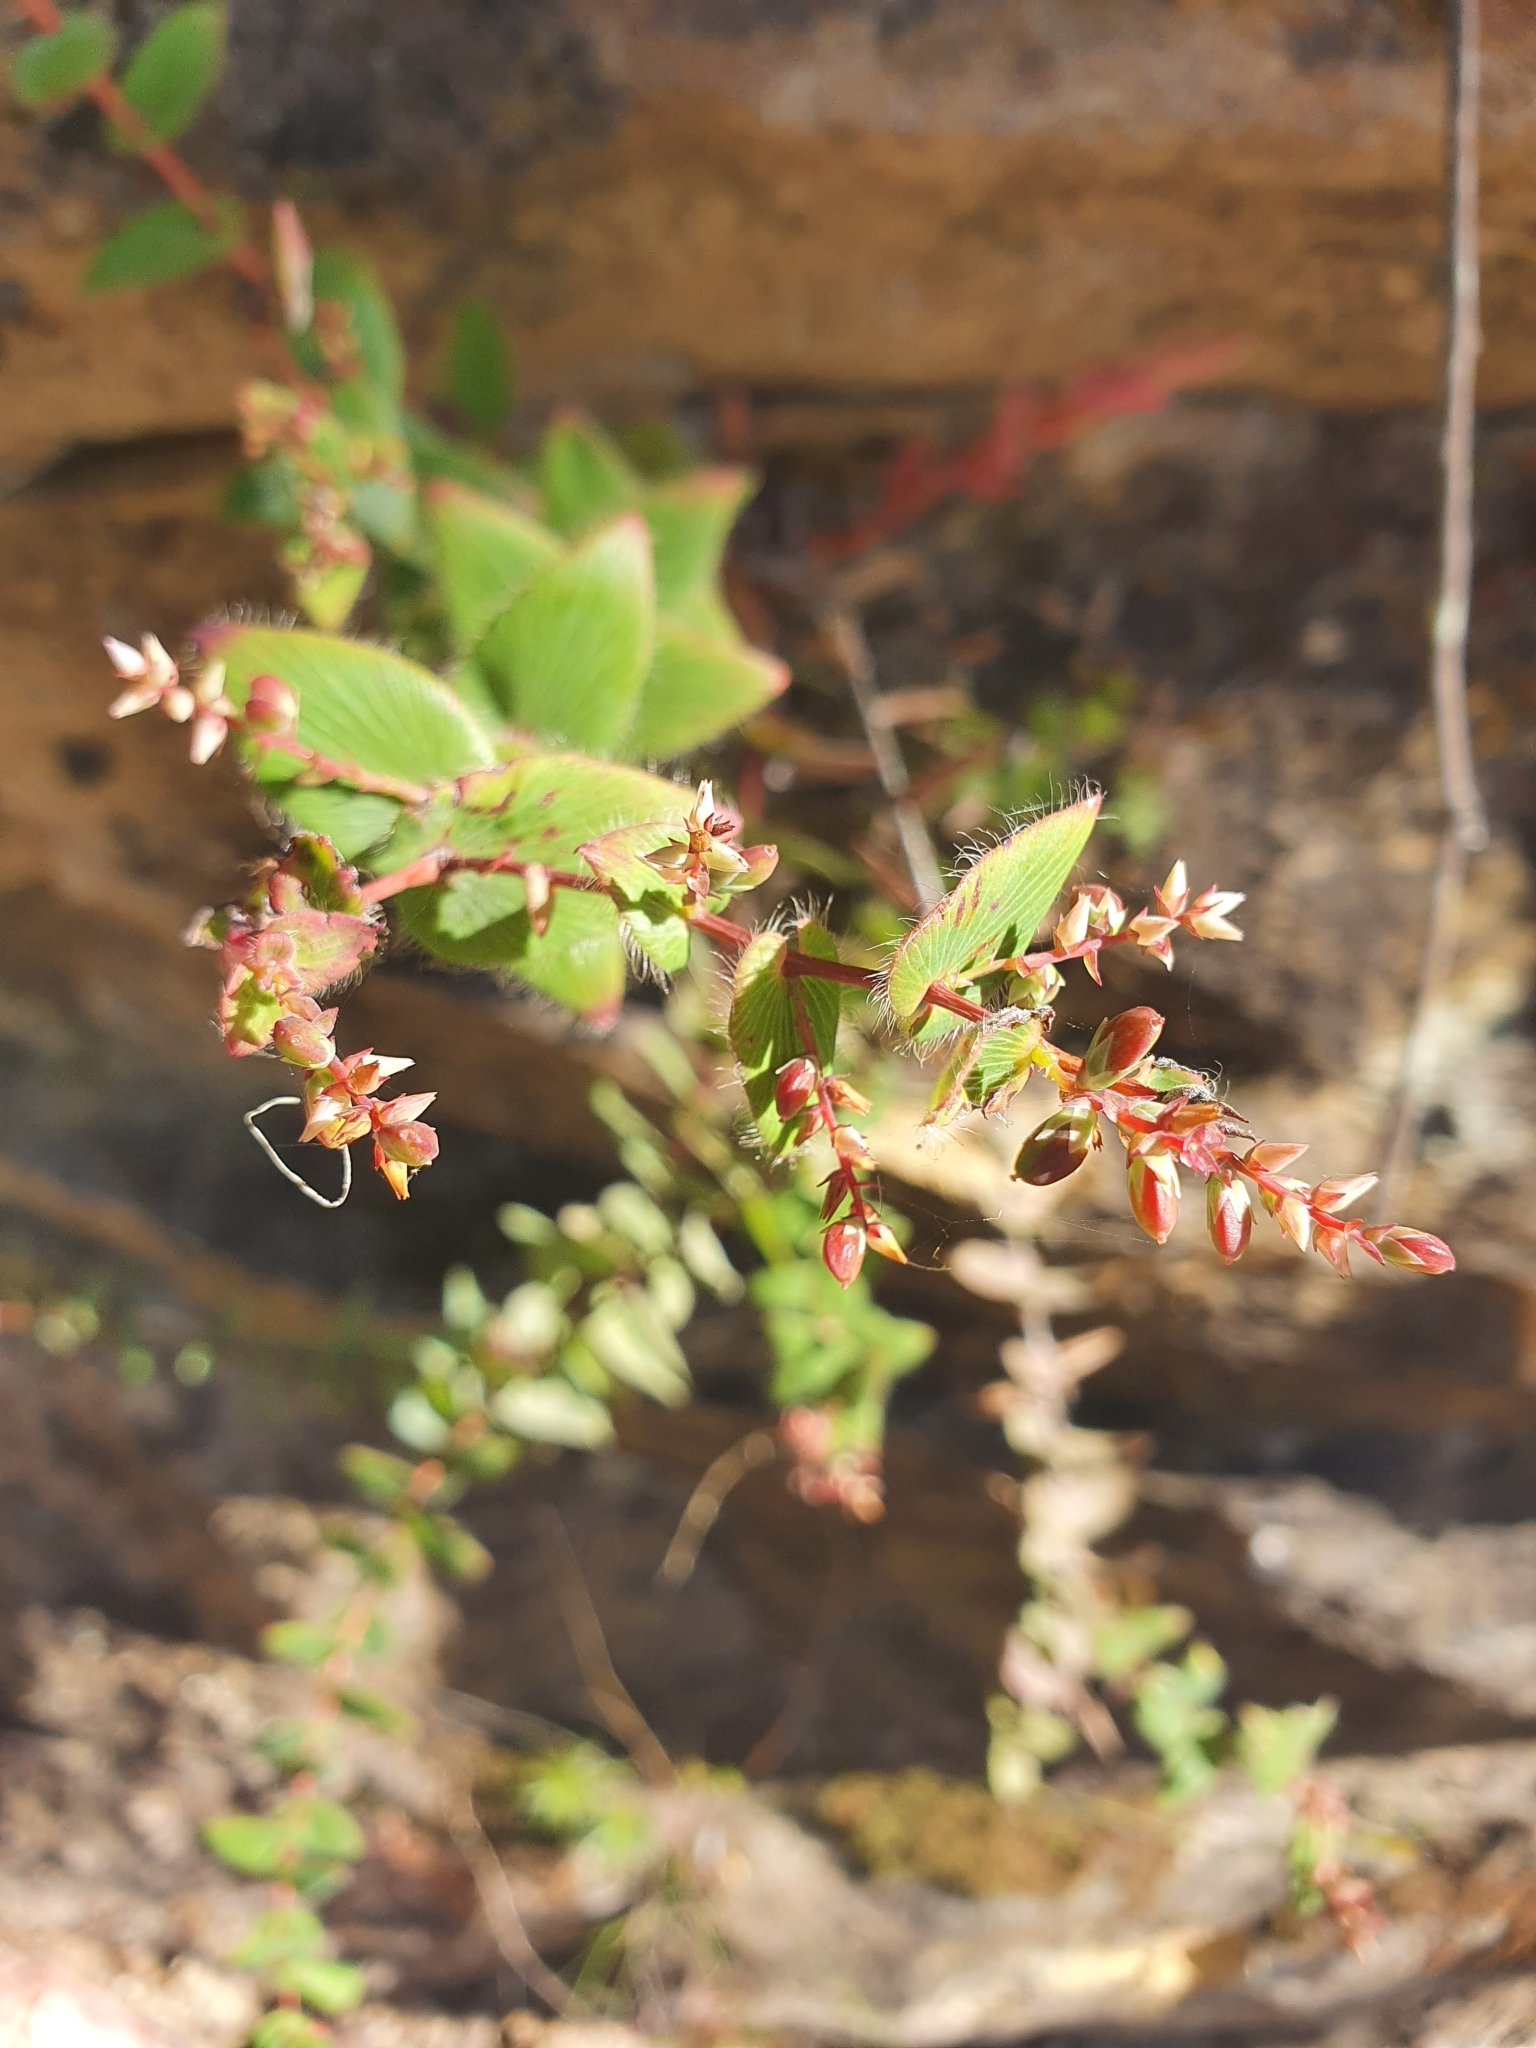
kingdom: Plantae
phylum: Tracheophyta
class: Magnoliopsida
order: Ericales
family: Ericaceae
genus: Leucopogon
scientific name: Leucopogon amplexicaulis
